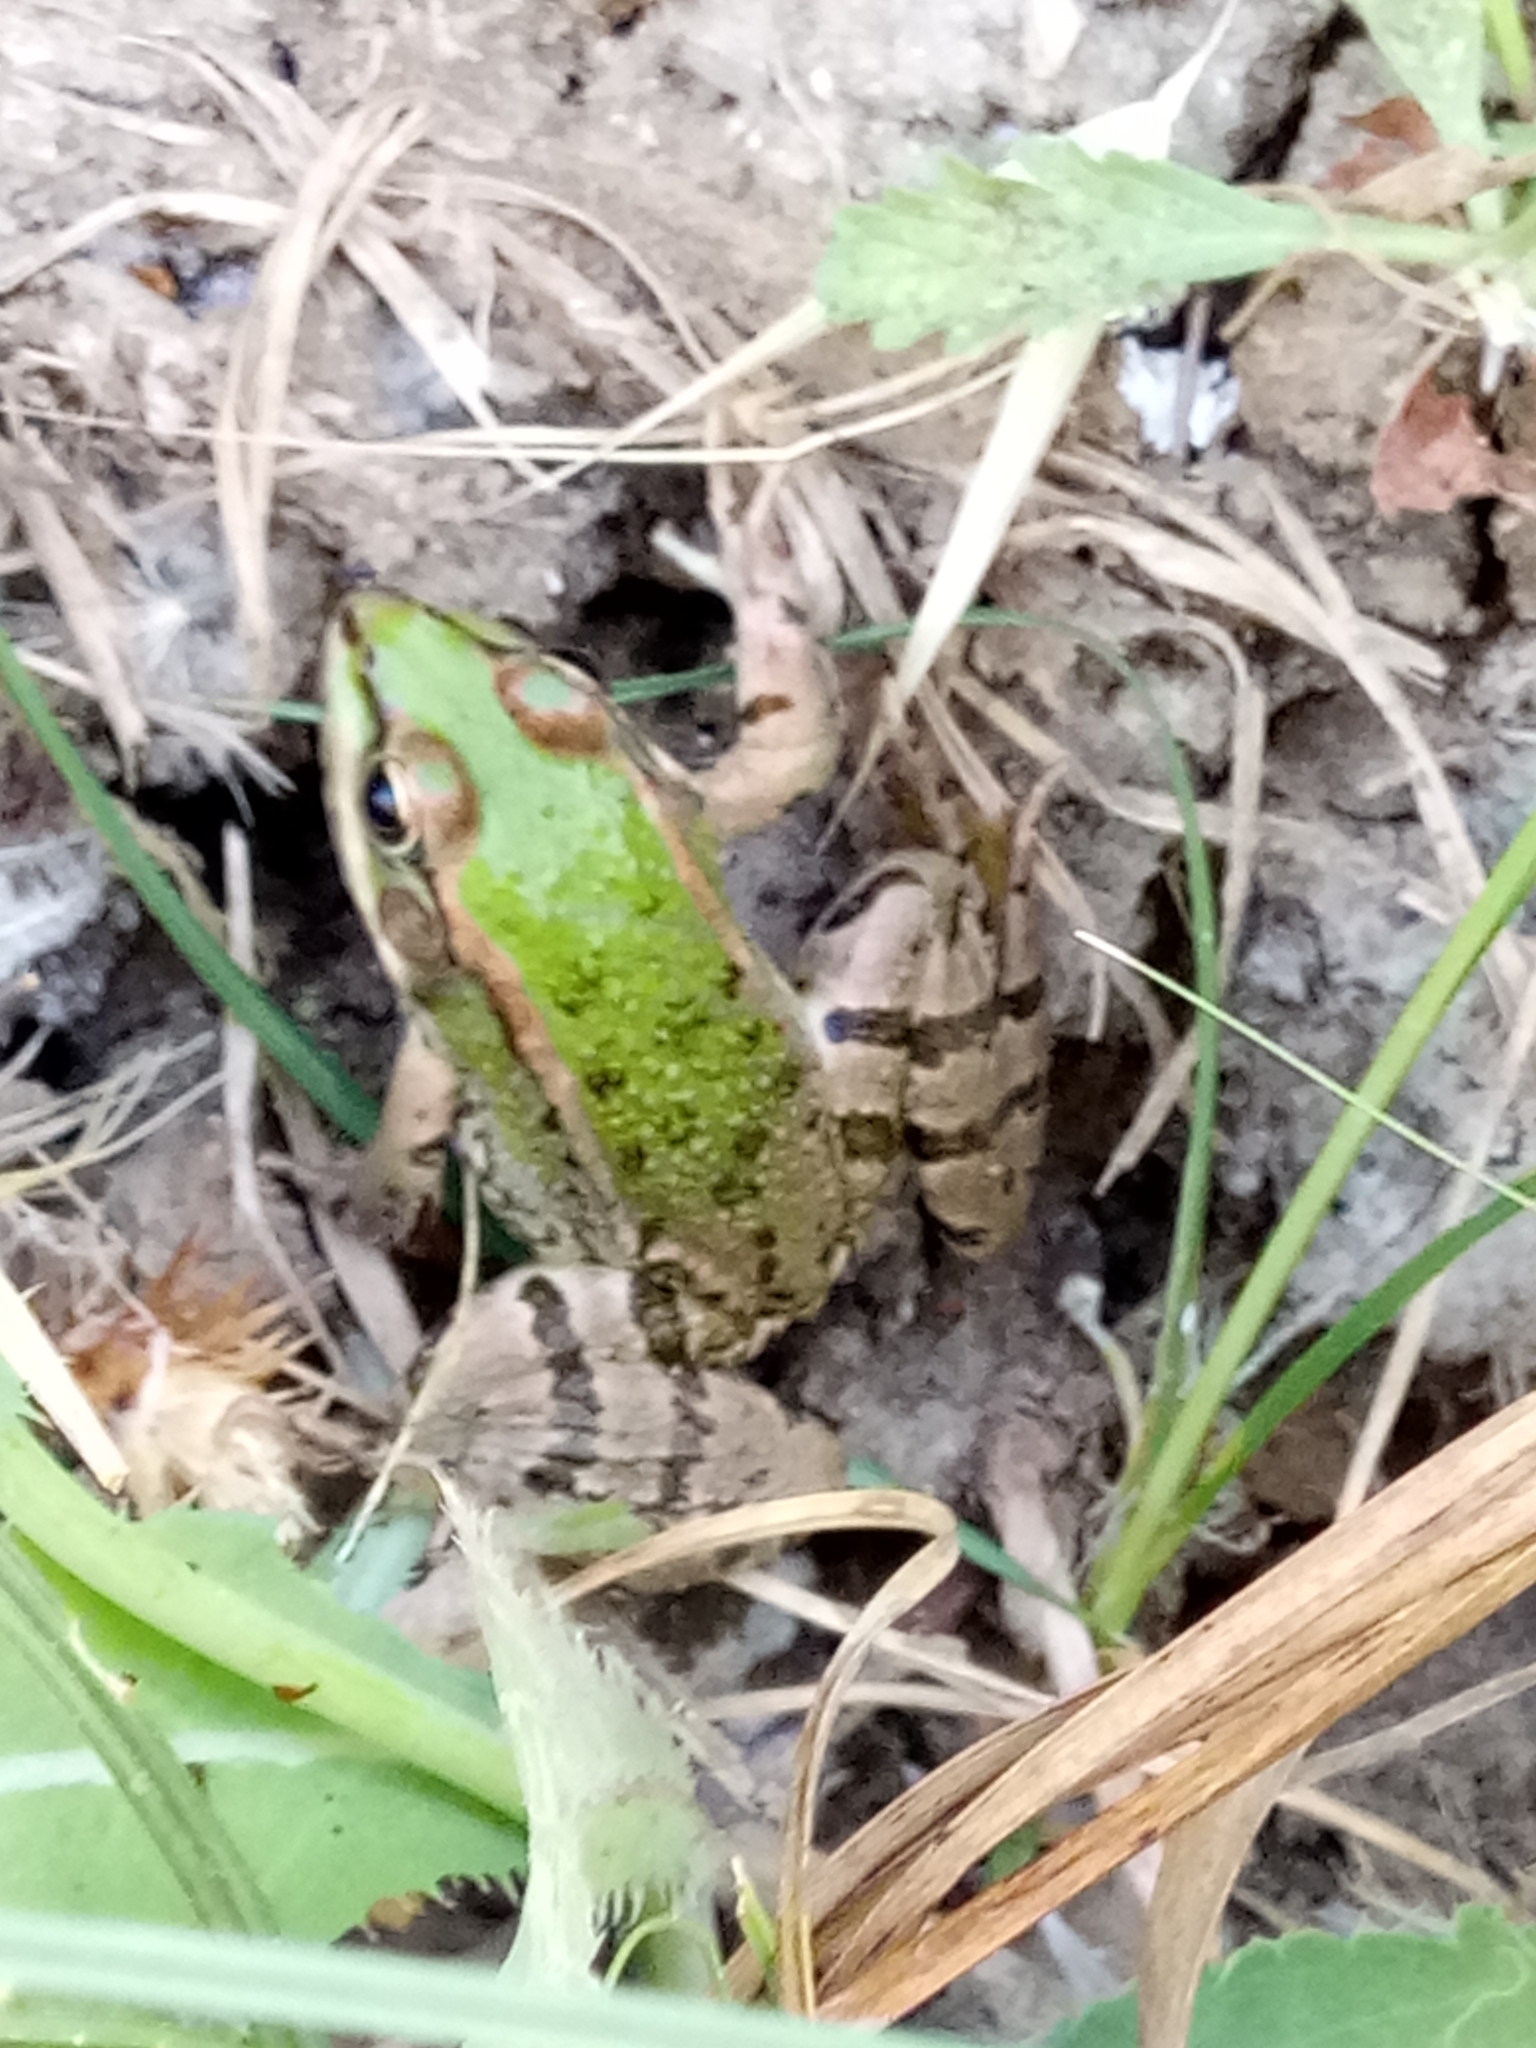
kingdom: Animalia
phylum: Chordata
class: Amphibia
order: Anura
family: Ranidae
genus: Pelophylax
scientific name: Pelophylax saharicus
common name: Sahara frog
